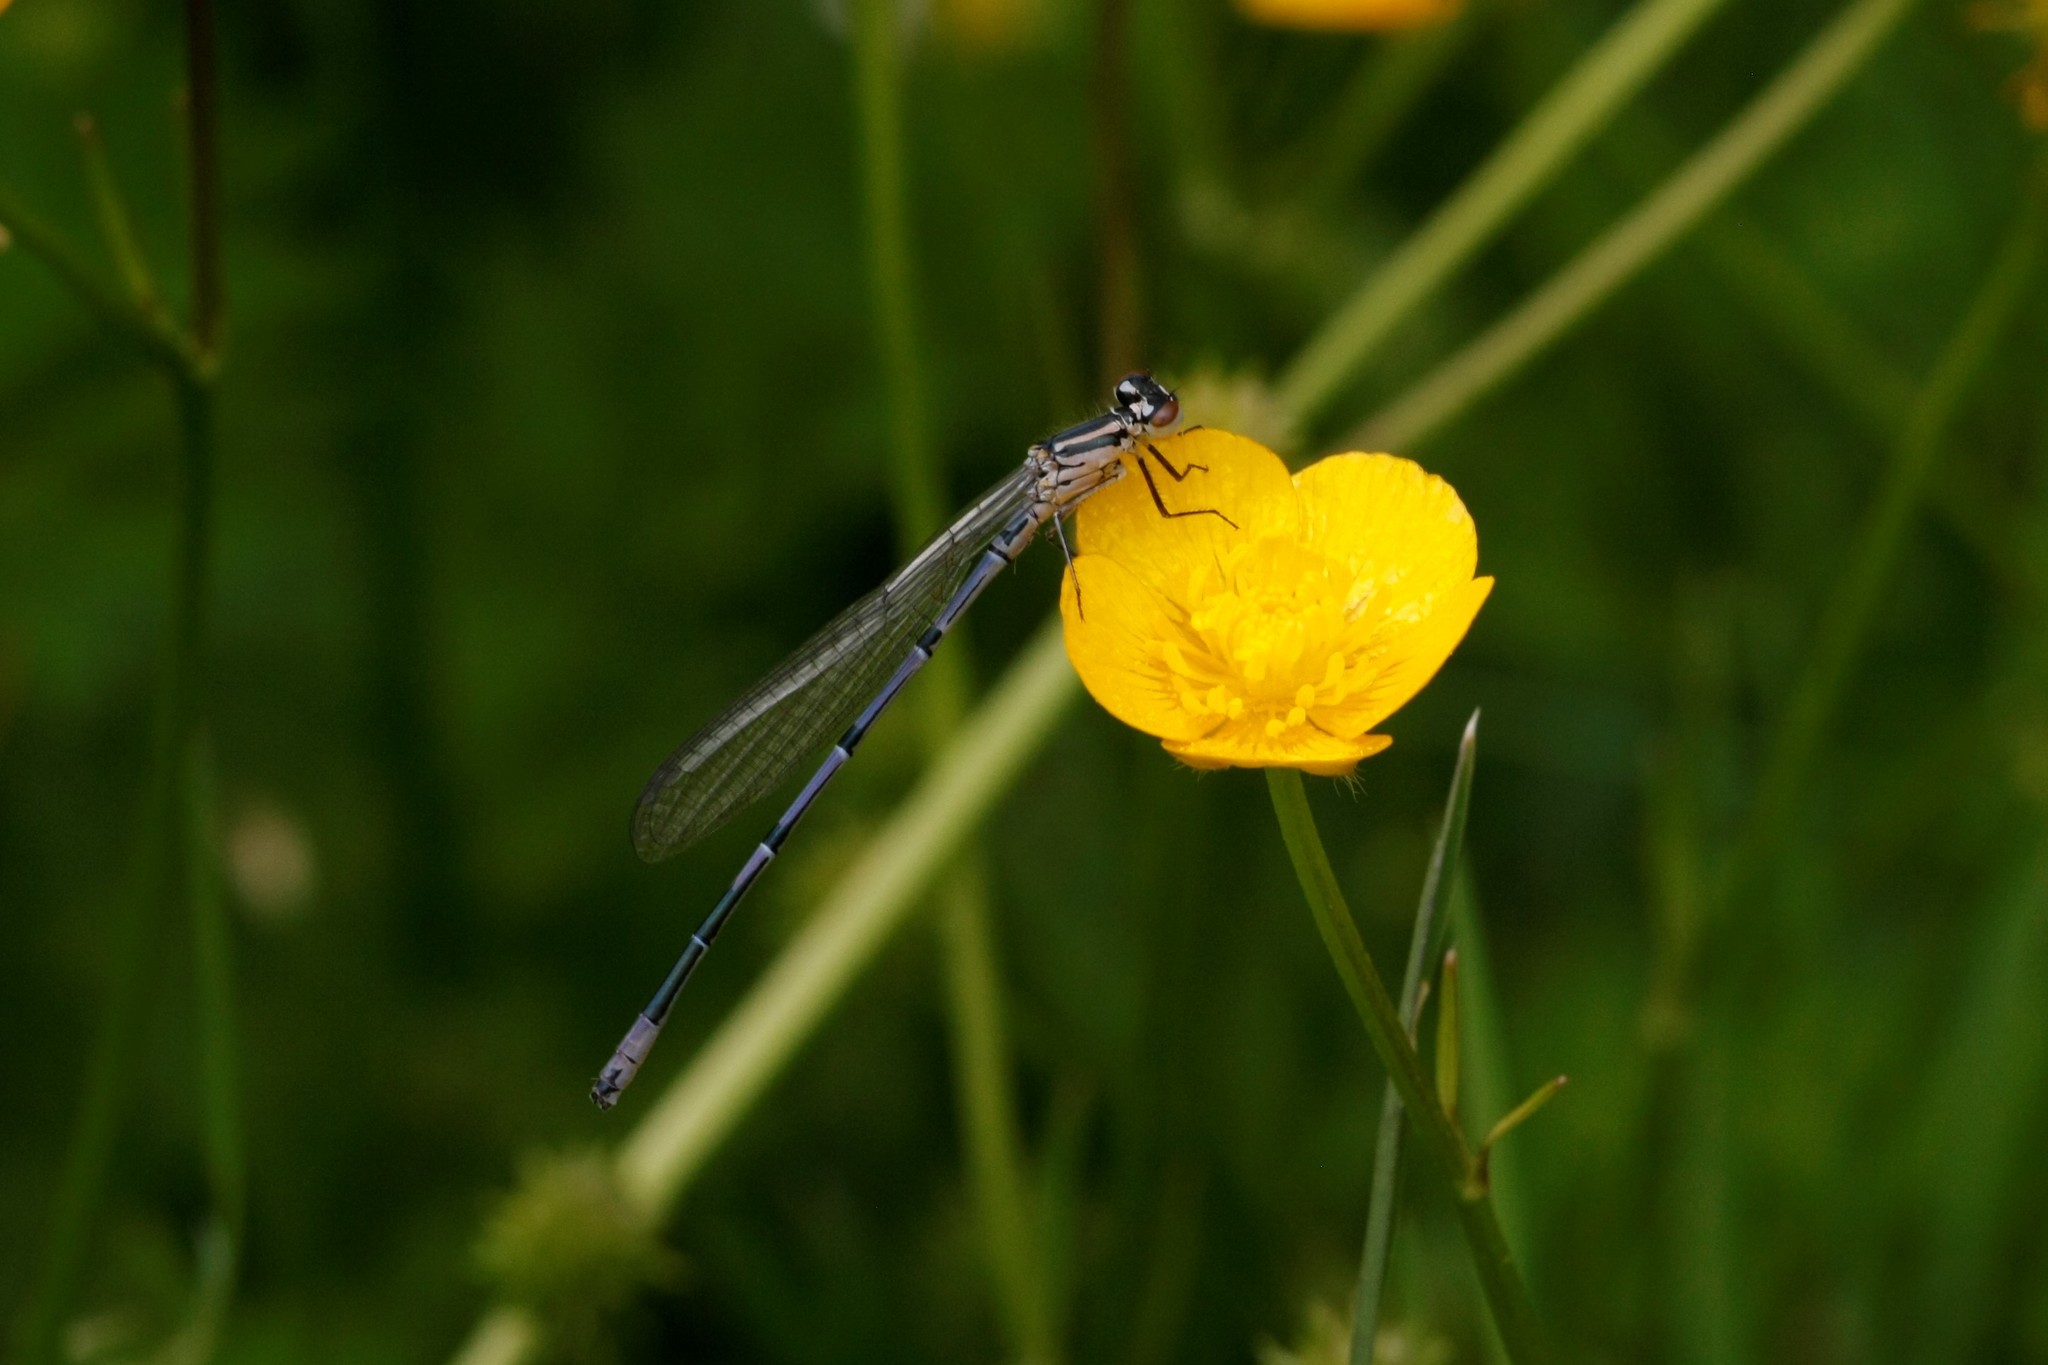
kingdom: Animalia
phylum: Arthropoda
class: Insecta
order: Odonata
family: Coenagrionidae
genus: Coenagrion
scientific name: Coenagrion puella
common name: Azure damselfly
